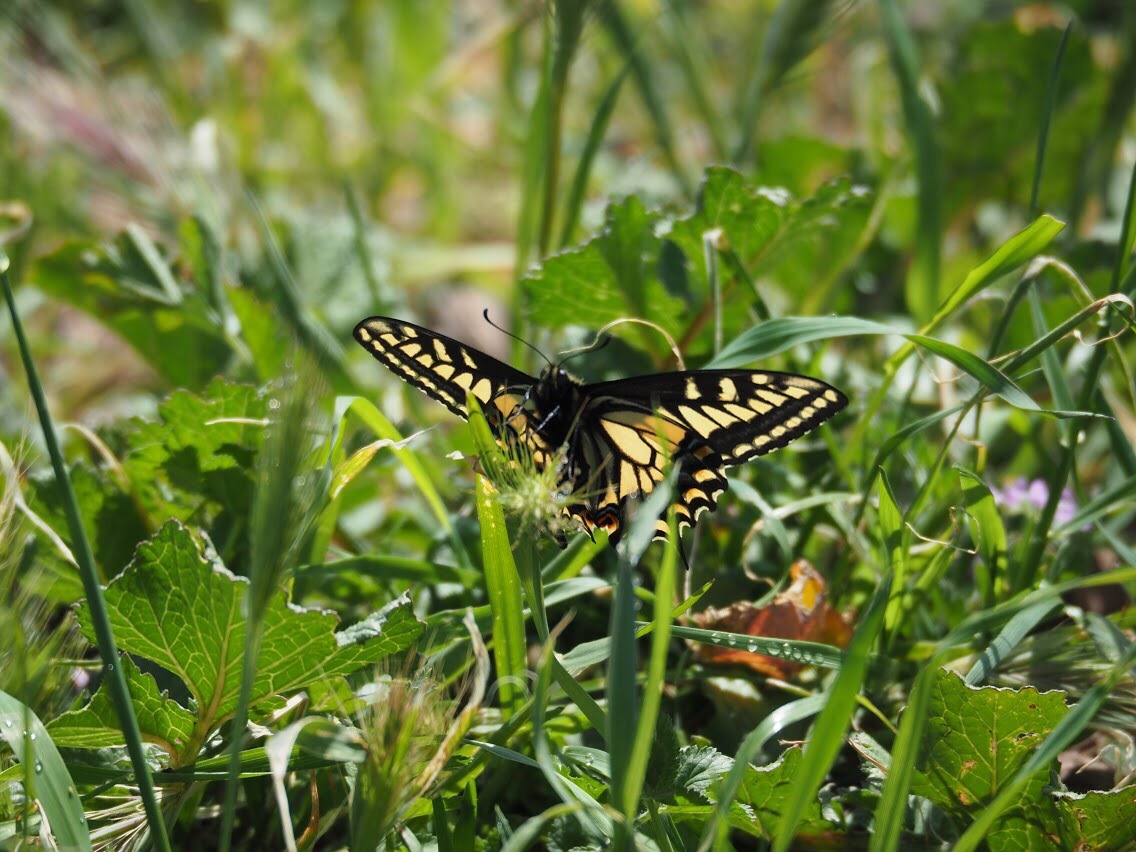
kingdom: Animalia
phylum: Arthropoda
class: Insecta
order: Lepidoptera
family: Papilionidae
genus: Papilio
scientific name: Papilio zelicaon
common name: Anise swallowtail
